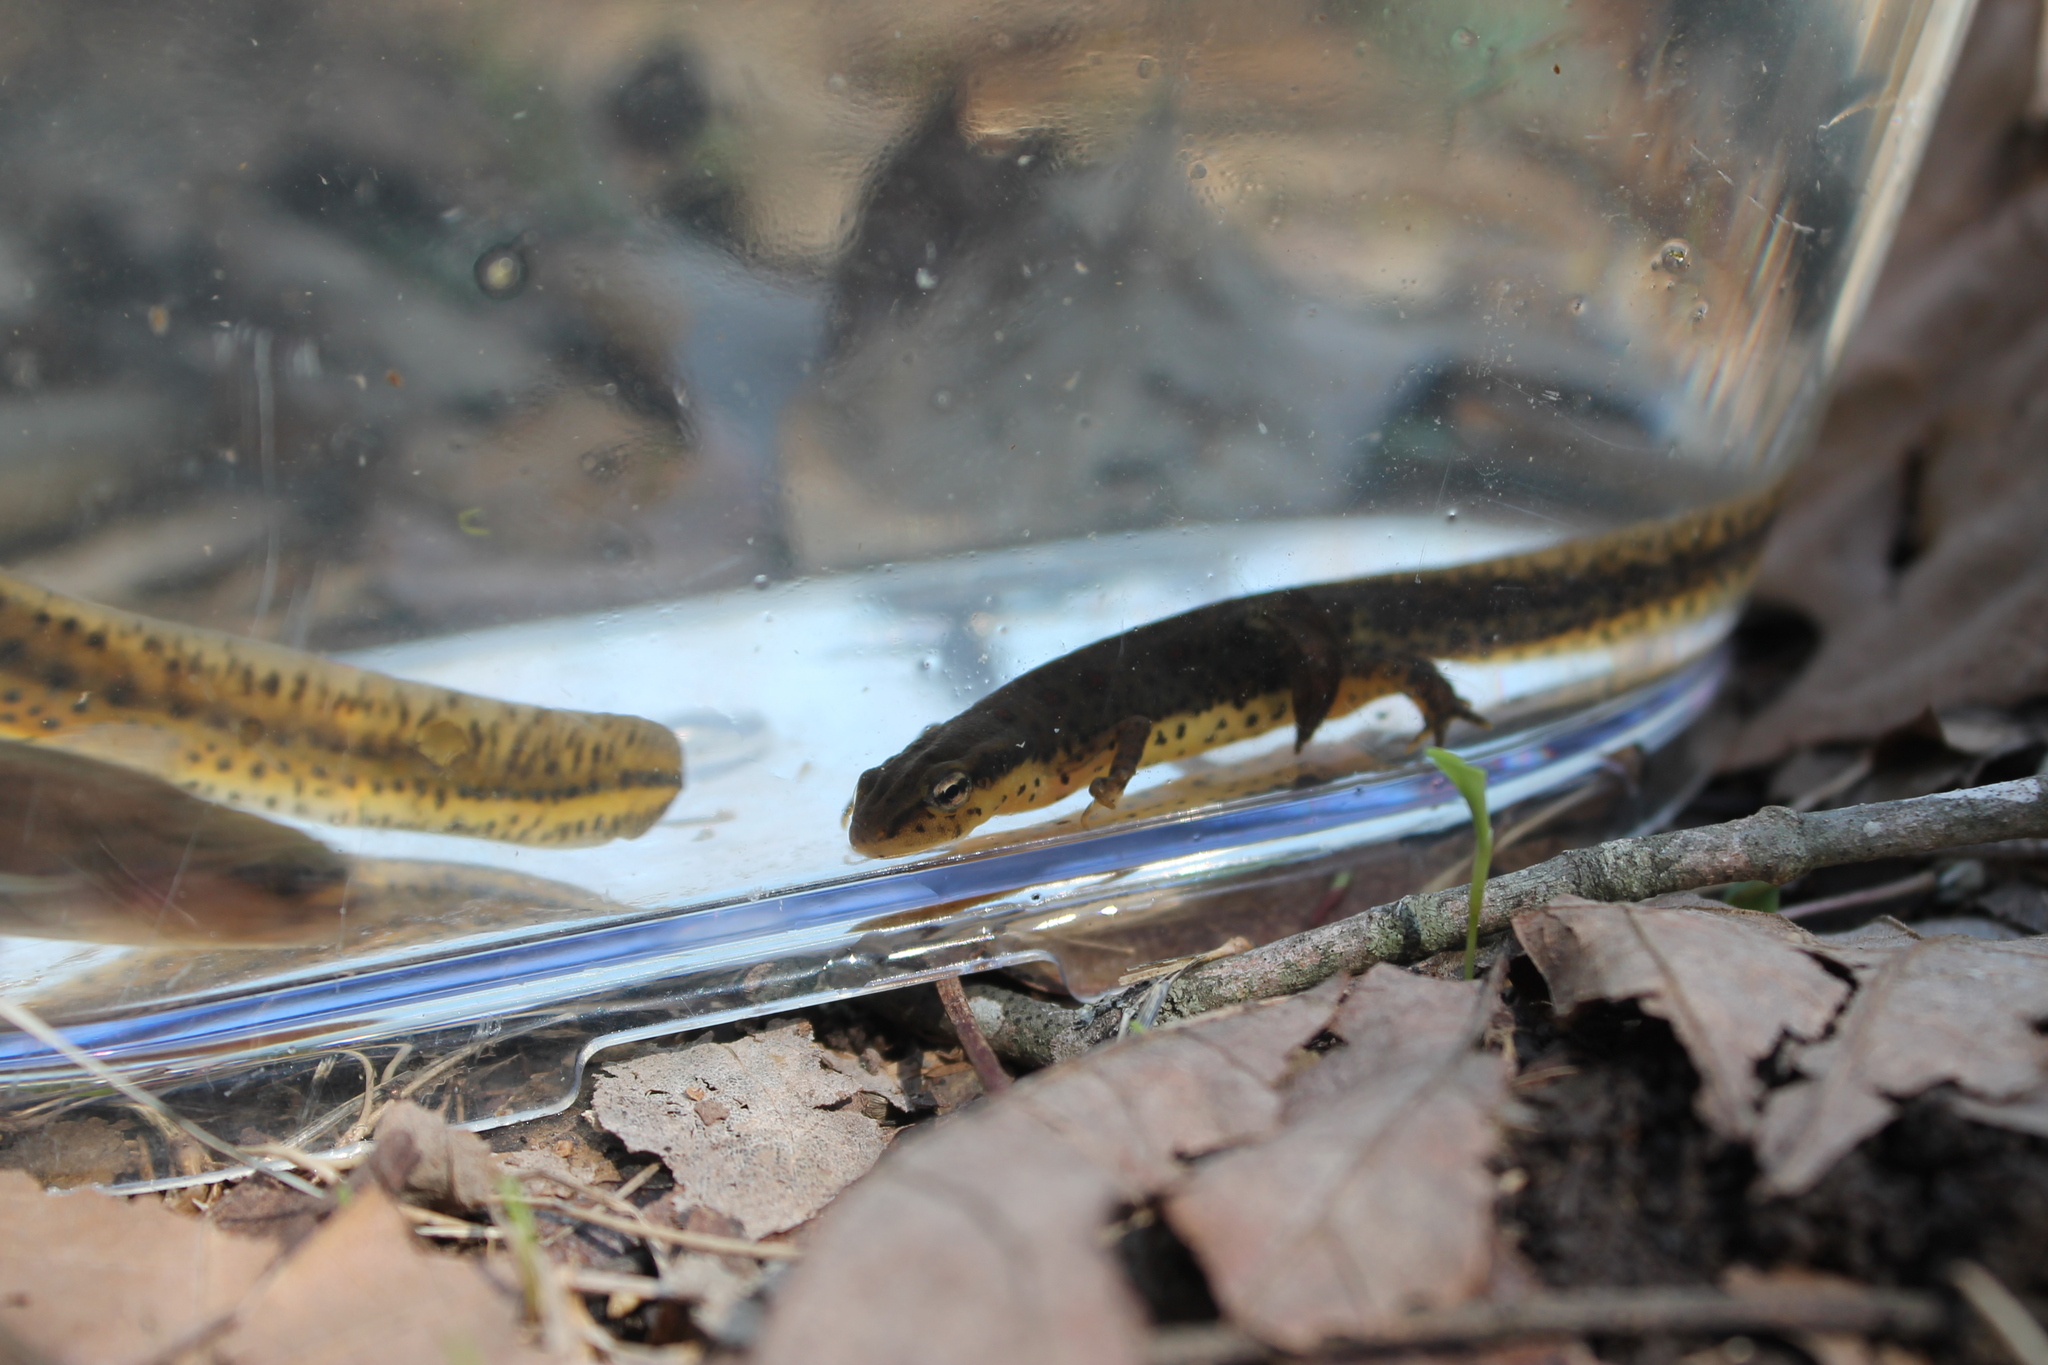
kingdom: Animalia
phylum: Chordata
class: Amphibia
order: Caudata
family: Salamandridae
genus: Notophthalmus
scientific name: Notophthalmus viridescens
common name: Eastern newt
